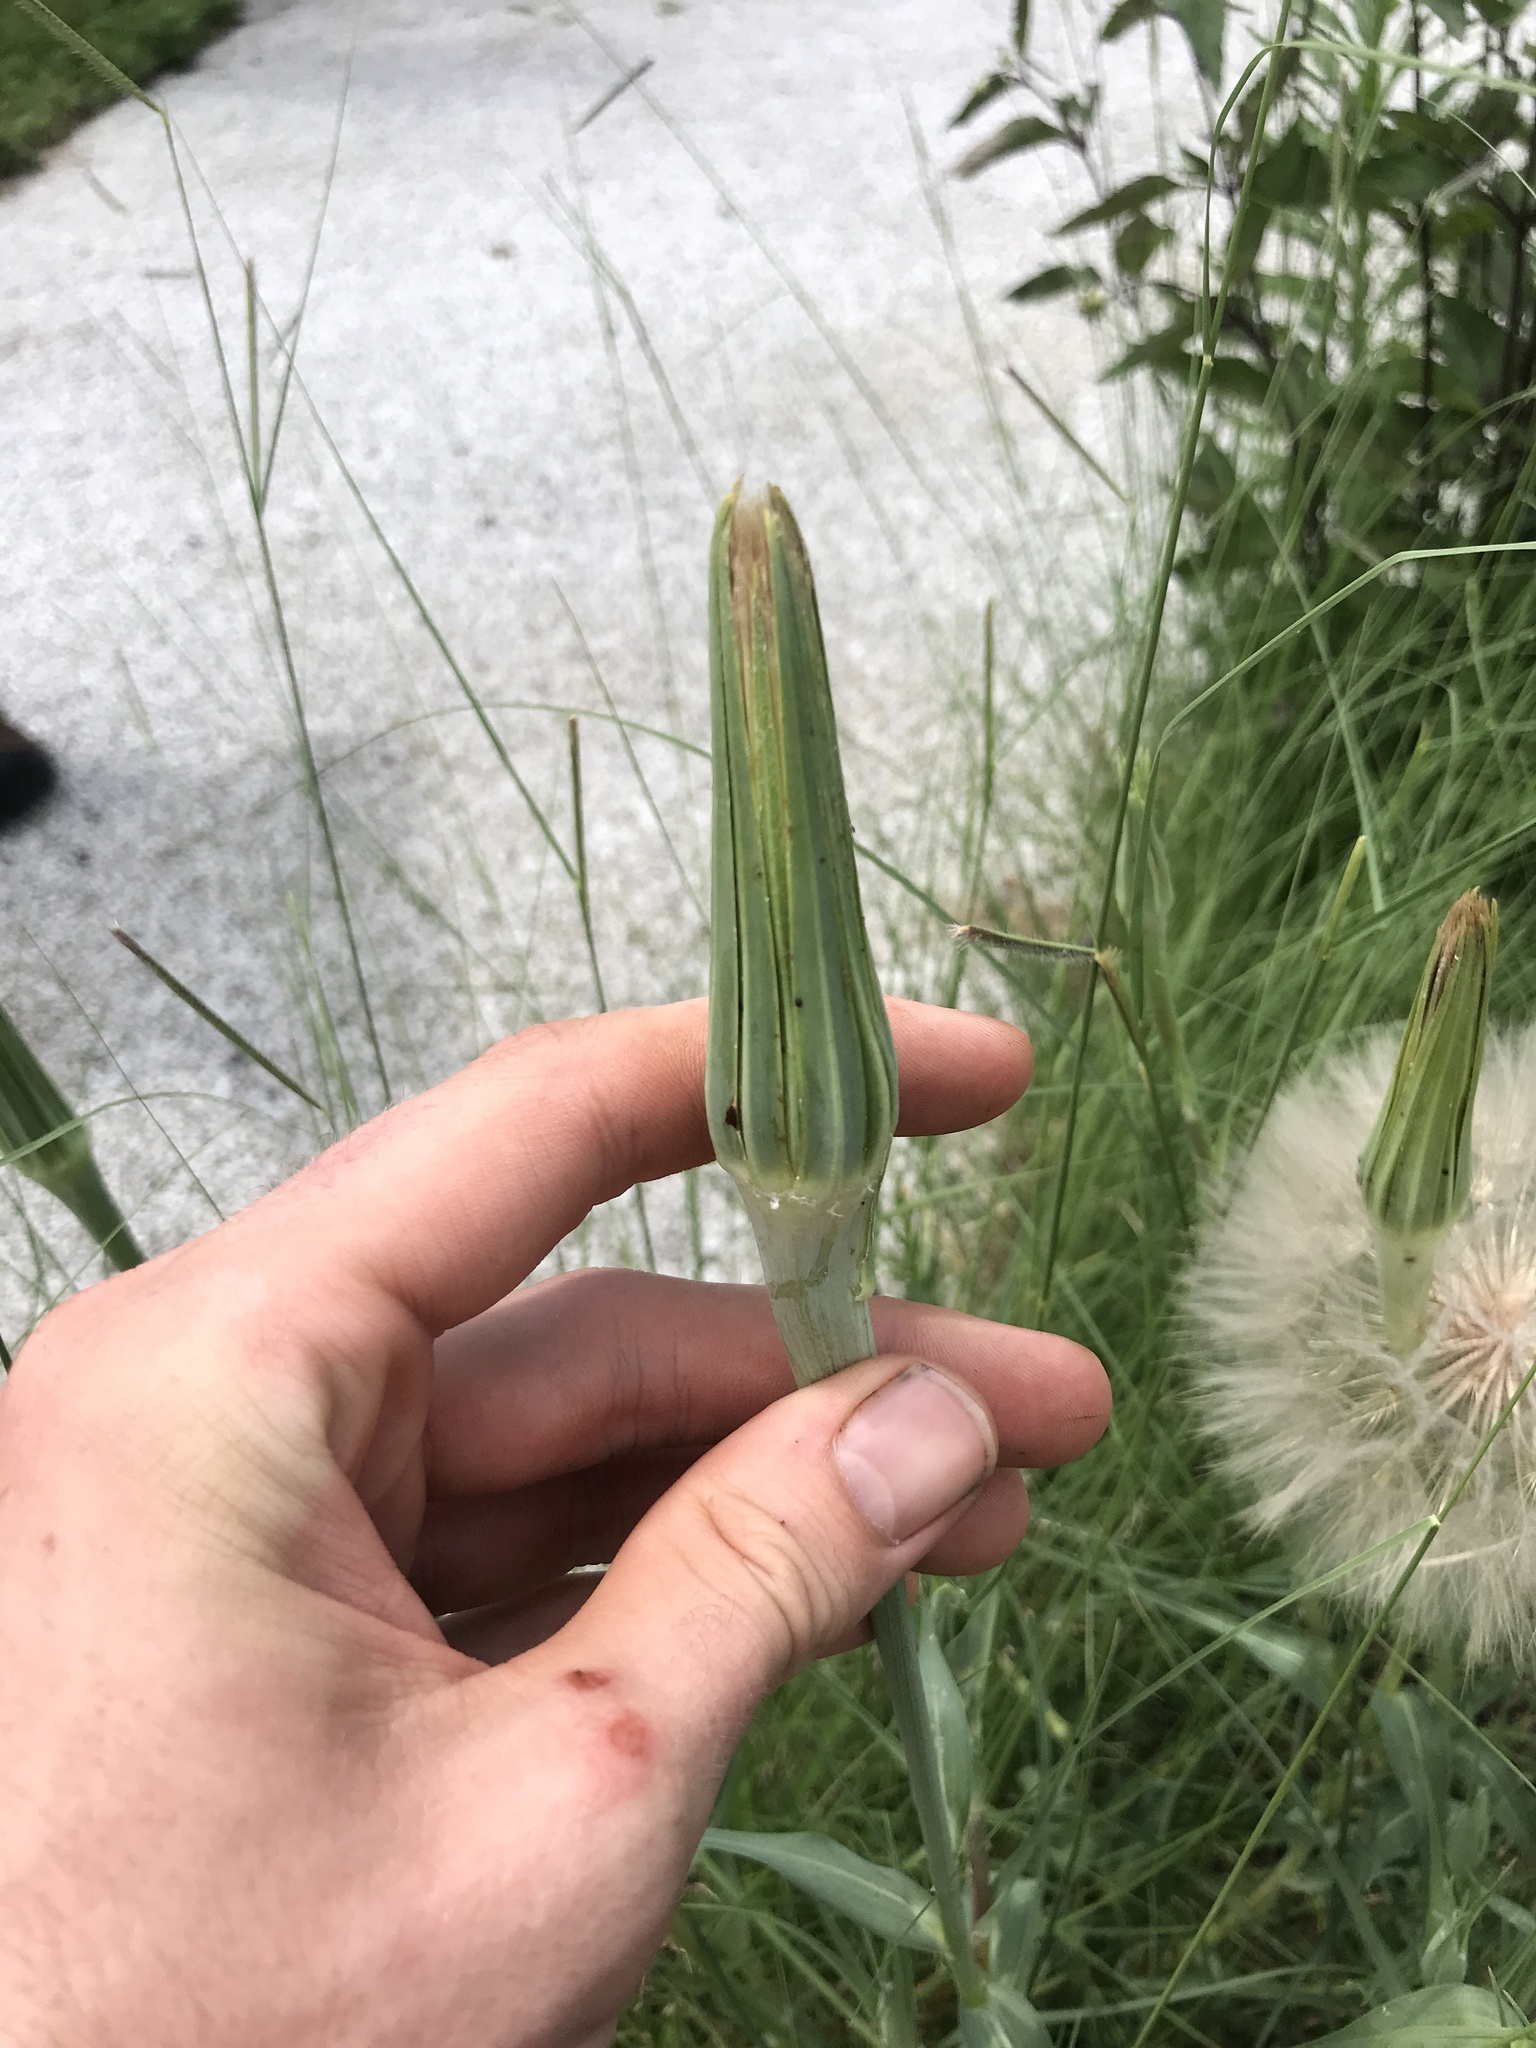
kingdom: Plantae
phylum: Tracheophyta
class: Magnoliopsida
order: Asterales
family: Asteraceae
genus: Tragopogon
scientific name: Tragopogon dubius
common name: Yellow salsify
